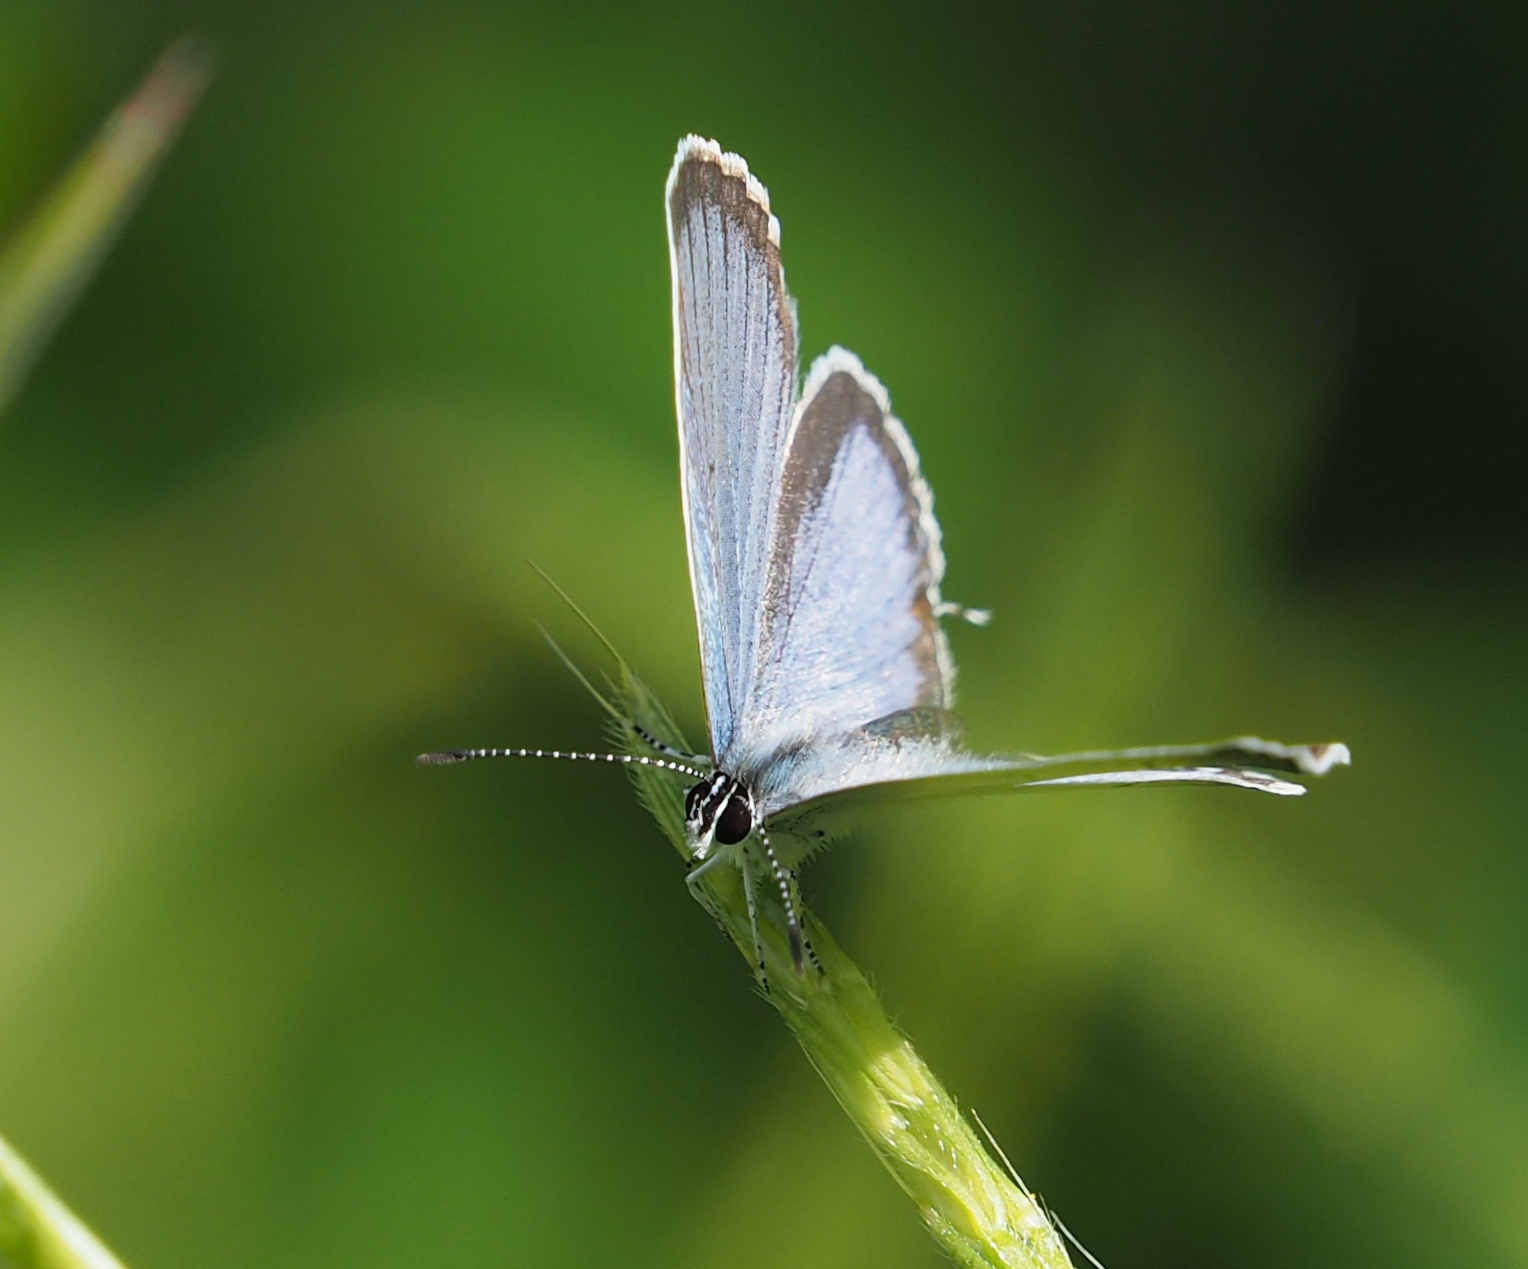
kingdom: Animalia
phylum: Arthropoda
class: Insecta
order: Lepidoptera
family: Lycaenidae
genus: Elkalyce
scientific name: Elkalyce comyntas
